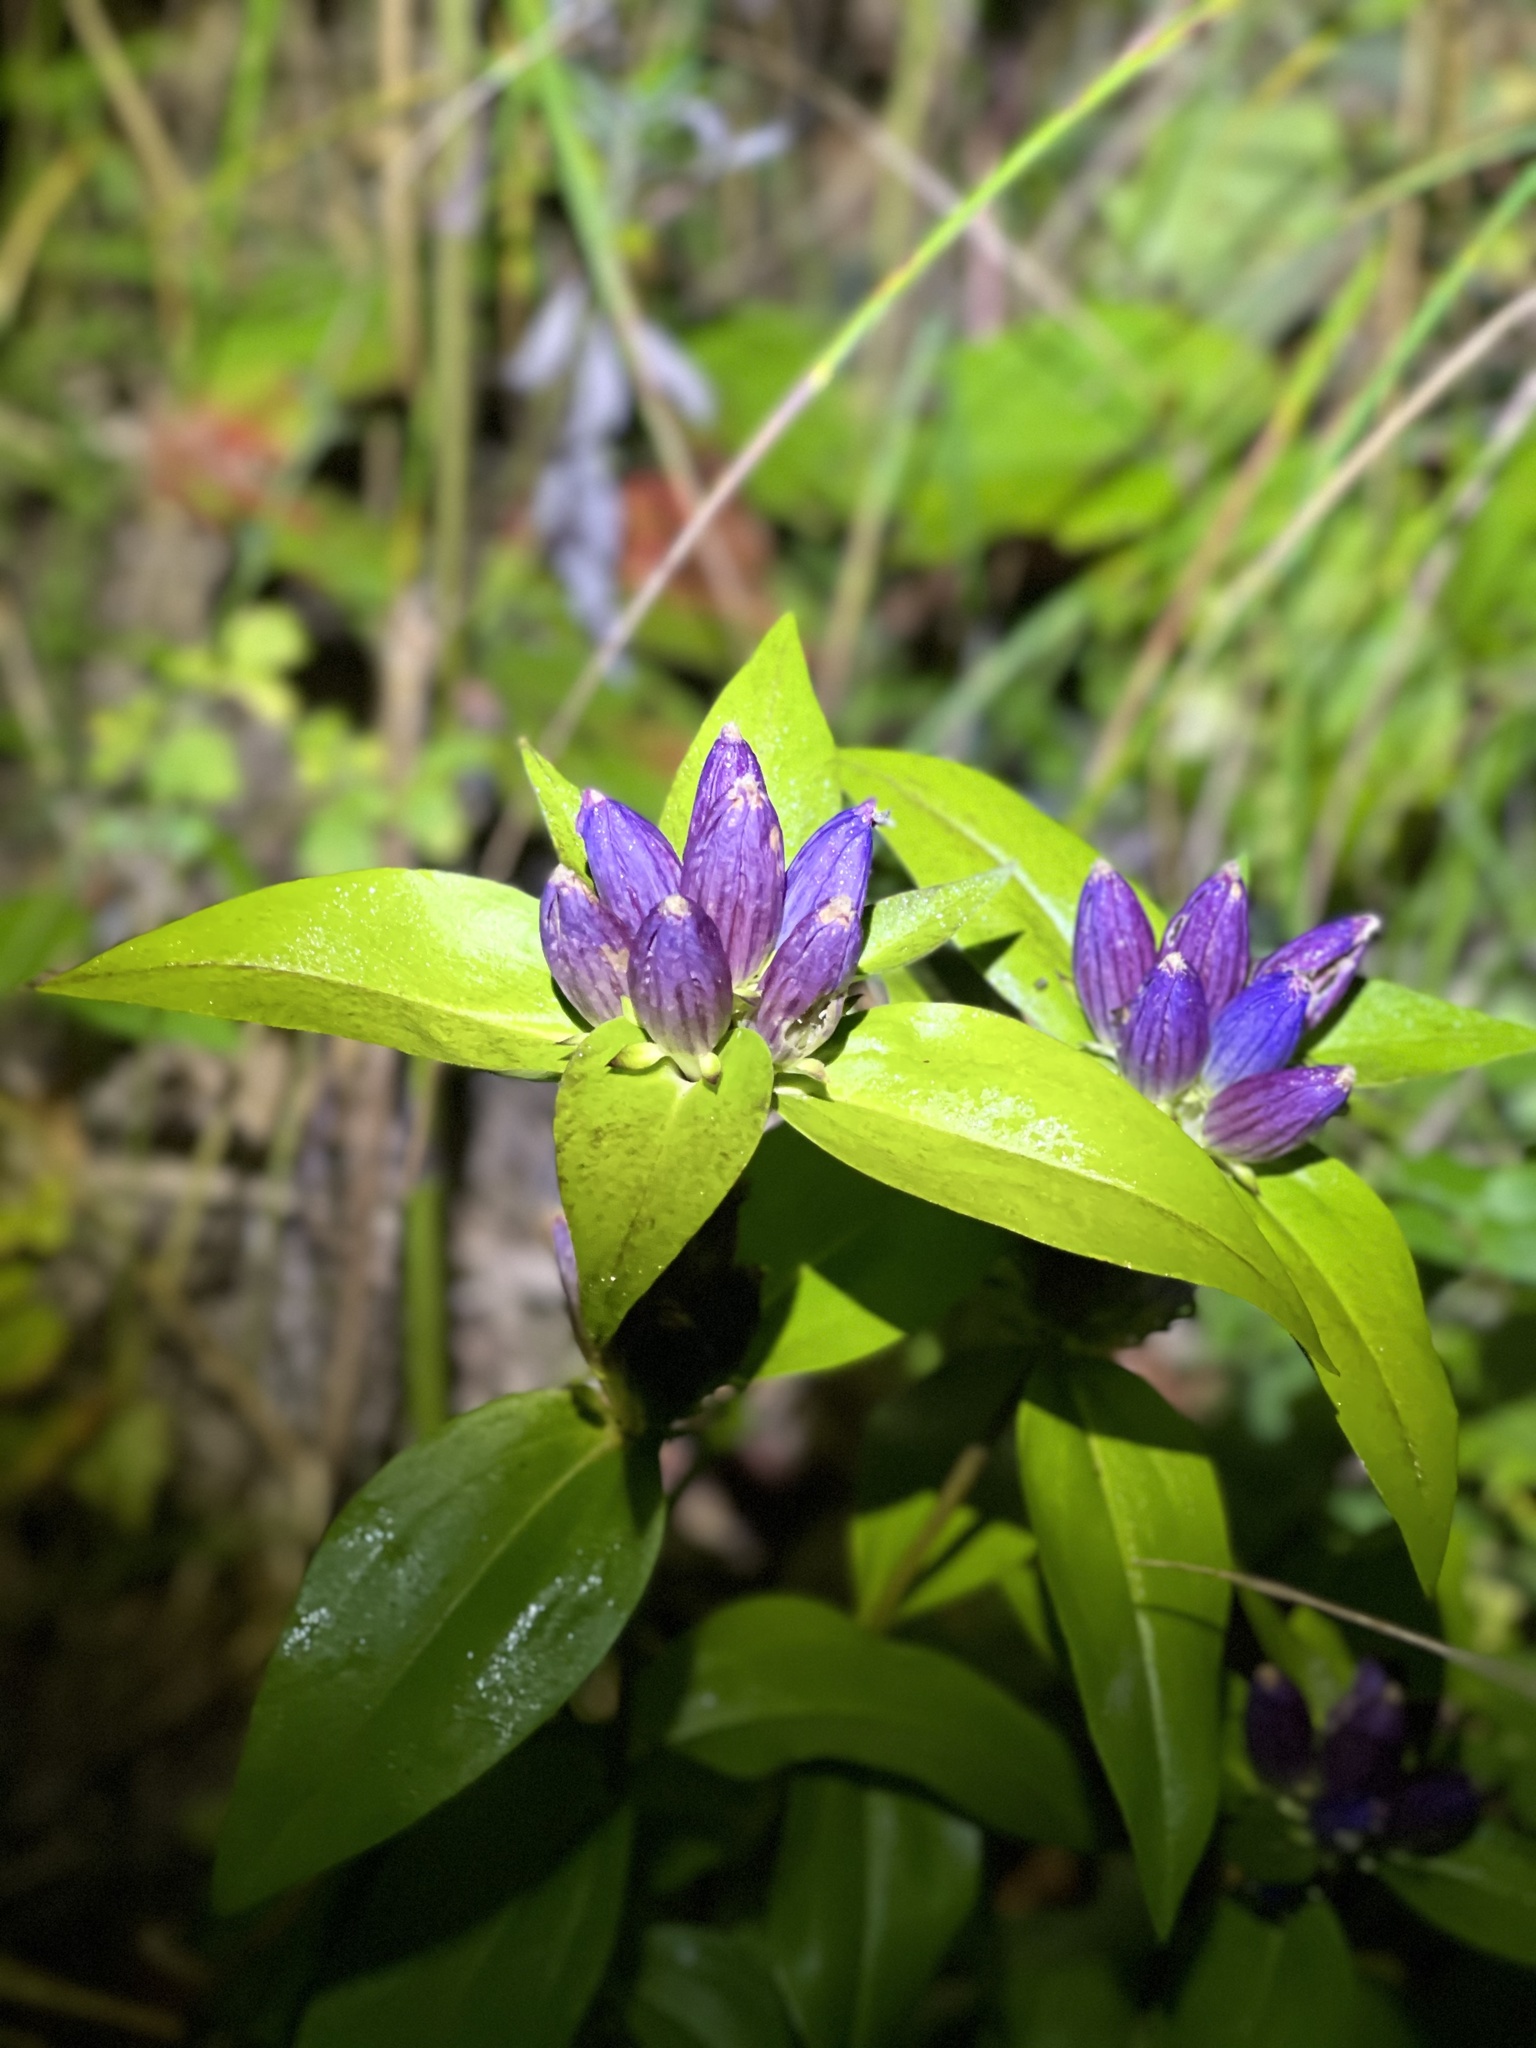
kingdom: Plantae
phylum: Tracheophyta
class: Magnoliopsida
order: Gentianales
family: Gentianaceae
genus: Gentiana
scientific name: Gentiana andrewsii
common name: Bottle gentian
